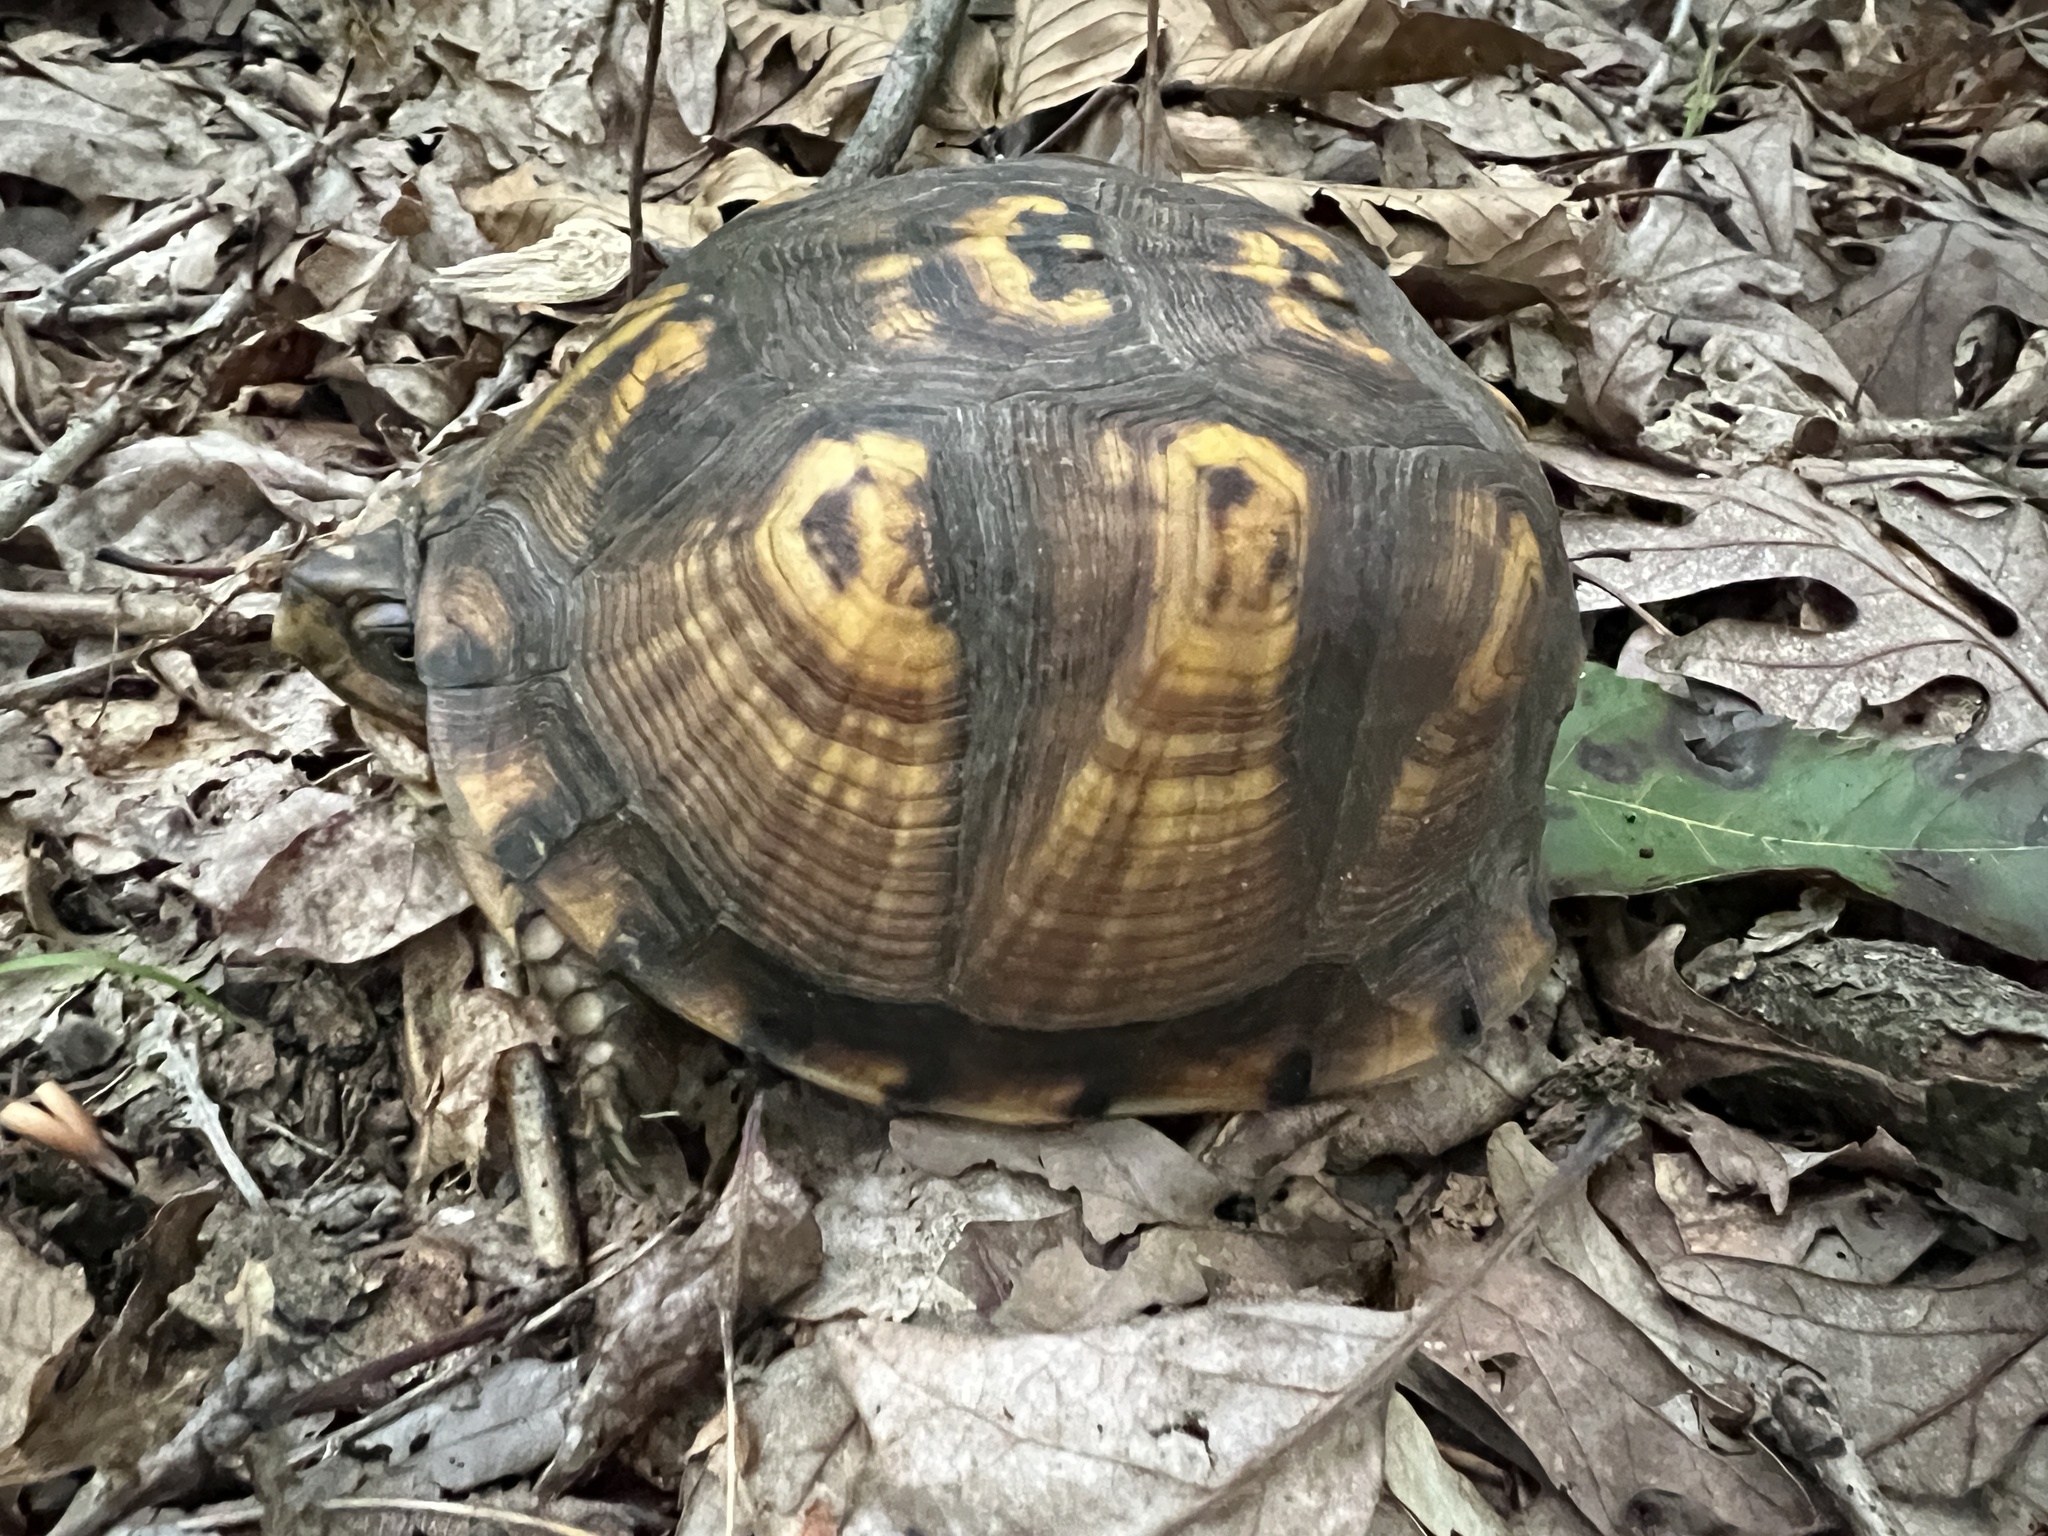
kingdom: Animalia
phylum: Chordata
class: Testudines
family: Emydidae
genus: Terrapene
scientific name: Terrapene carolina
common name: Common box turtle
